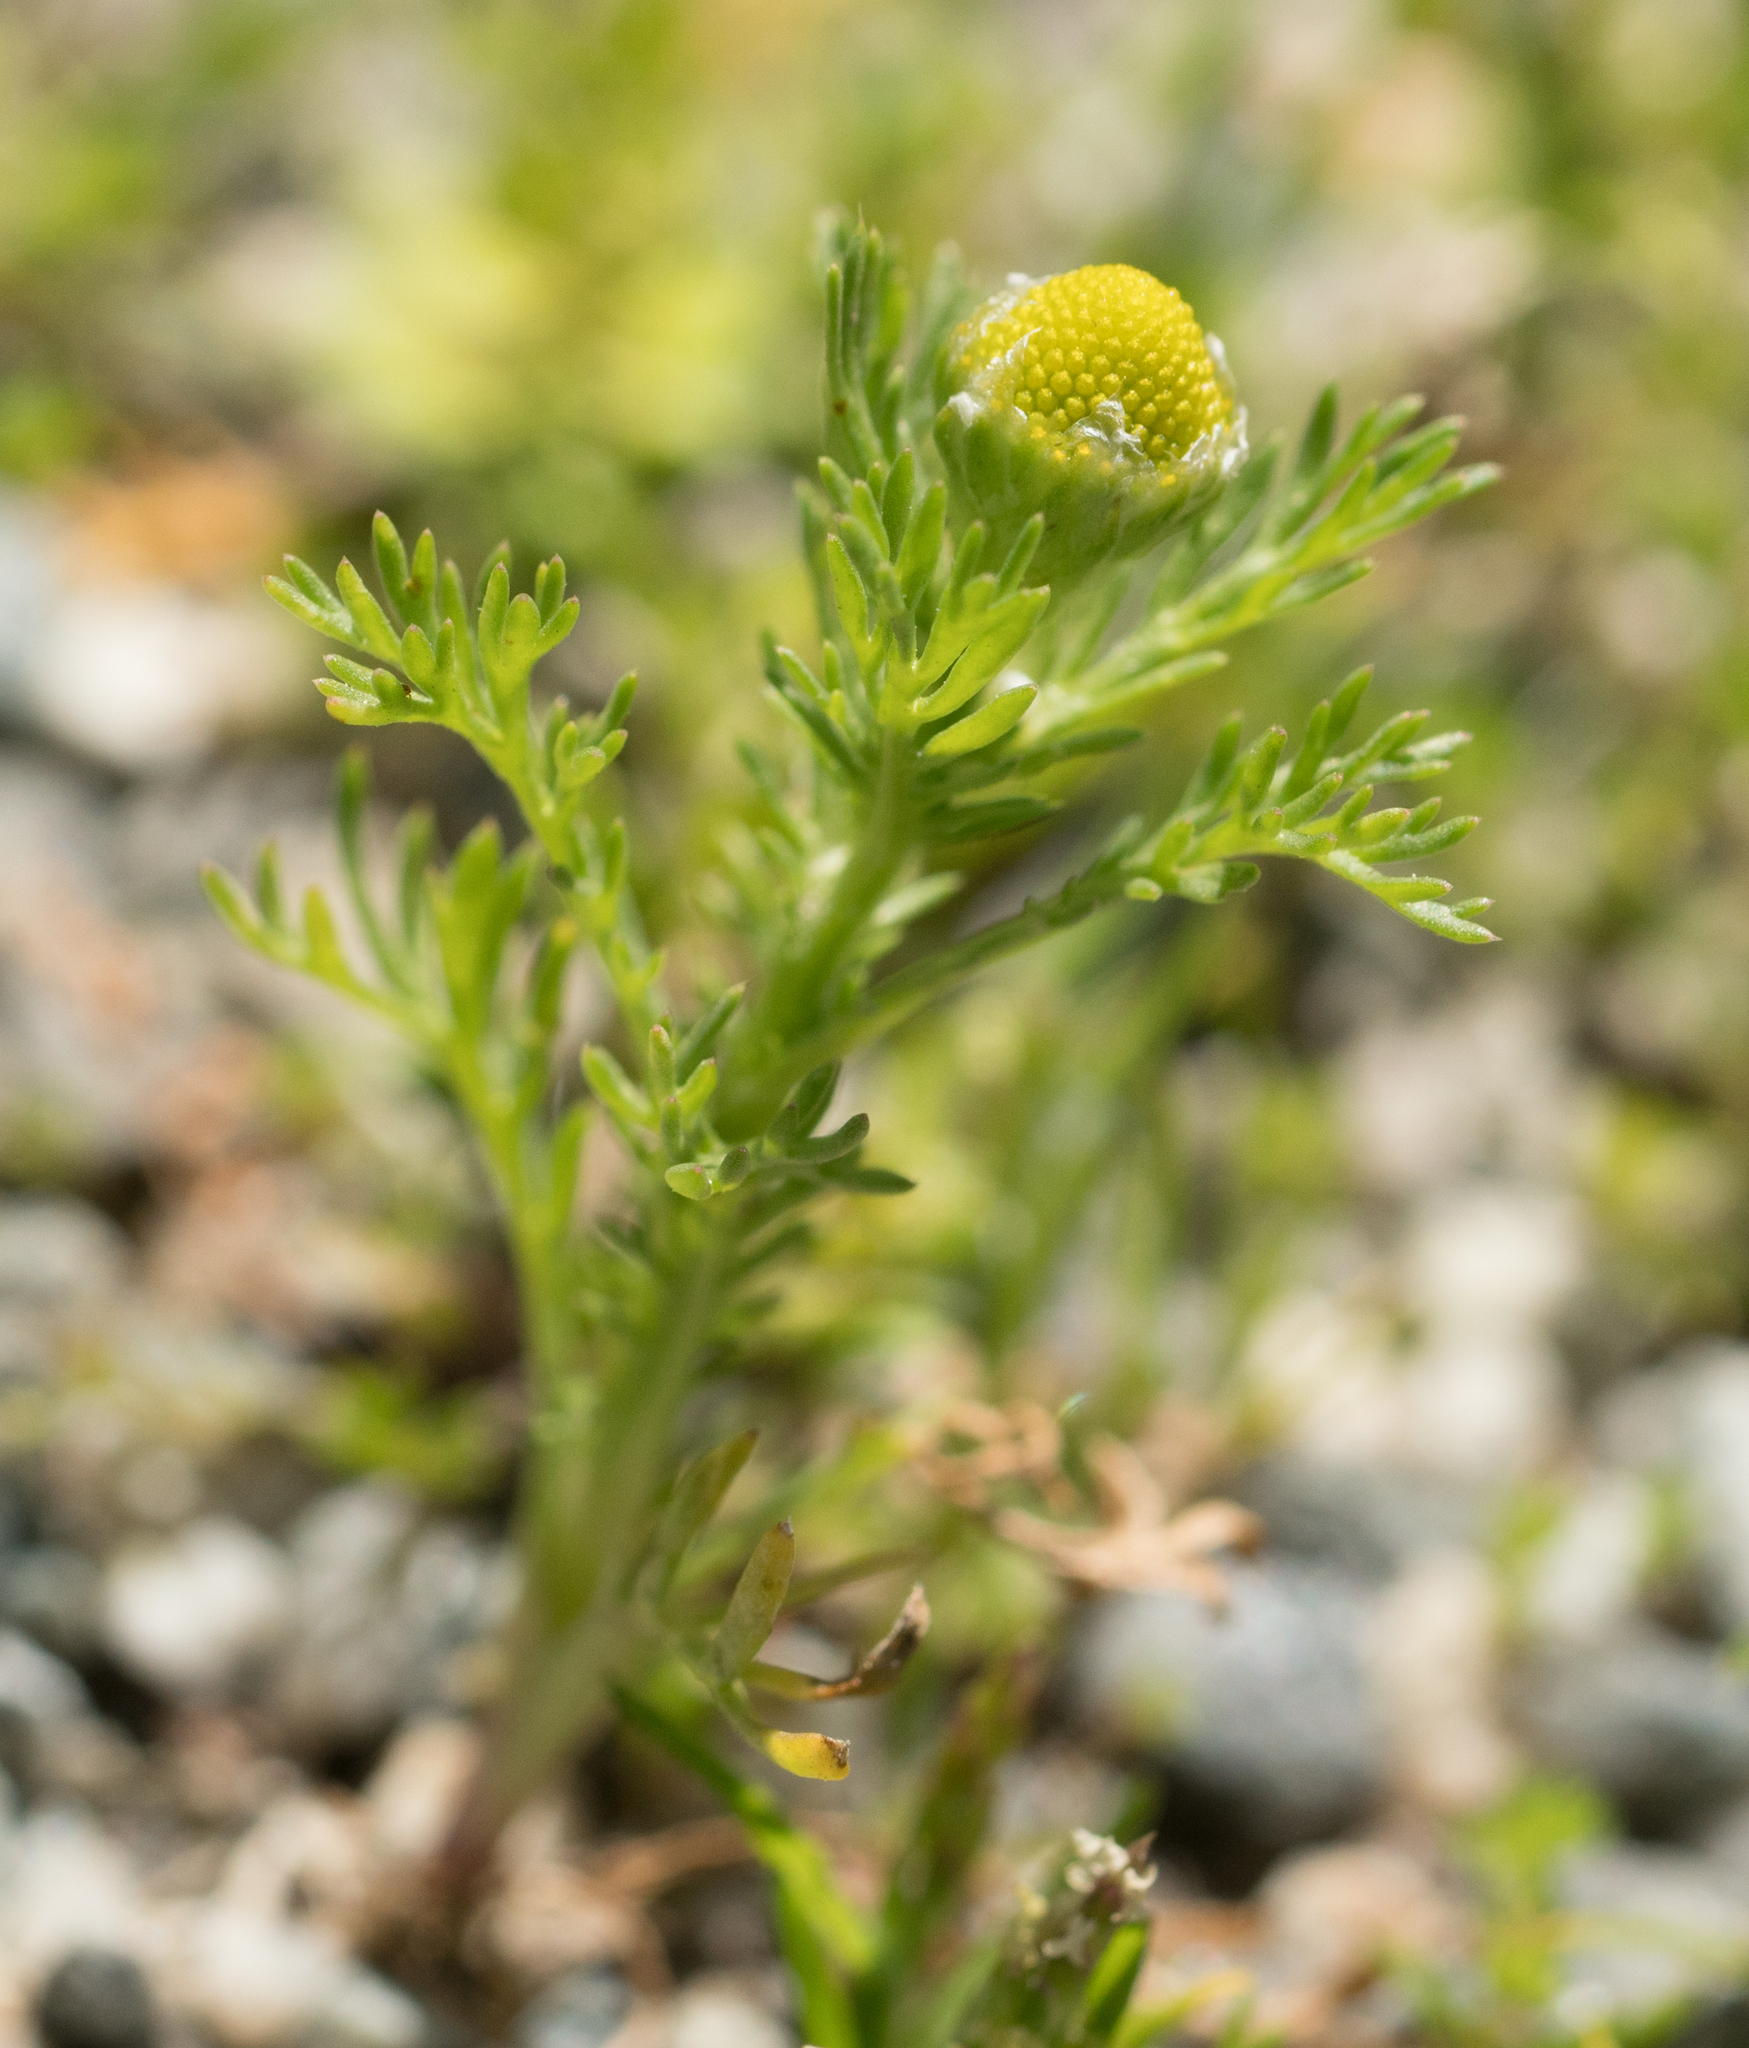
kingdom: Plantae
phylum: Tracheophyta
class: Magnoliopsida
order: Asterales
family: Asteraceae
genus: Matricaria
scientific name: Matricaria discoidea
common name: Disc mayweed
